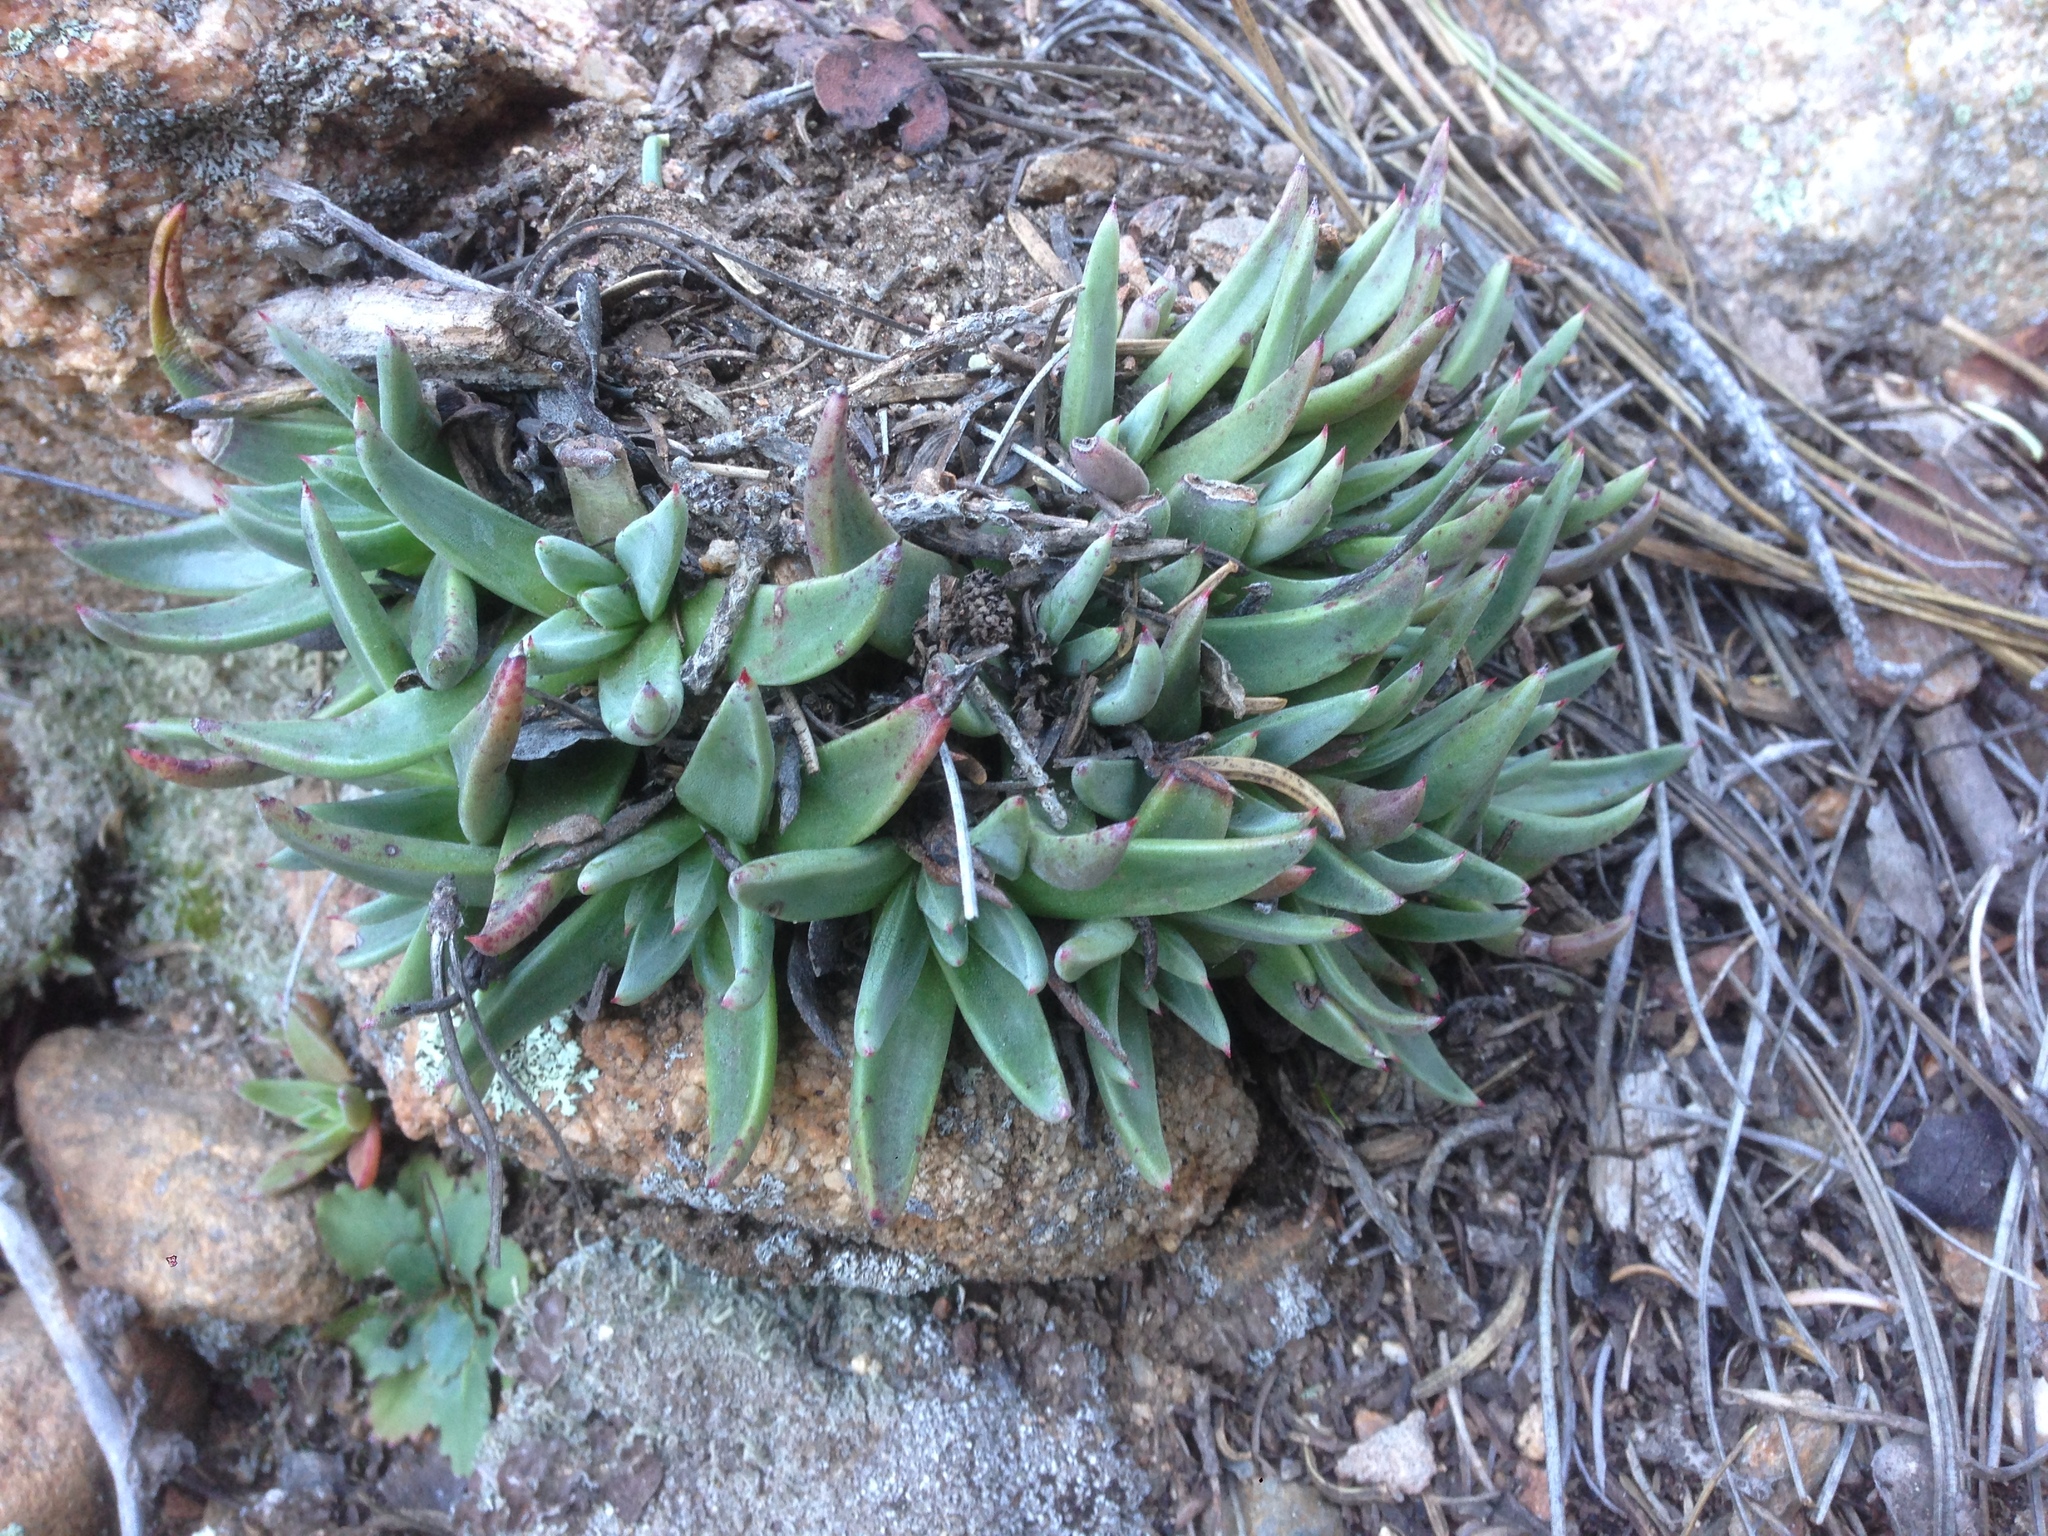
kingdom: Plantae
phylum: Tracheophyta
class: Magnoliopsida
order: Saxifragales
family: Crassulaceae
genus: Dudleya
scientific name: Dudleya pauciflora
